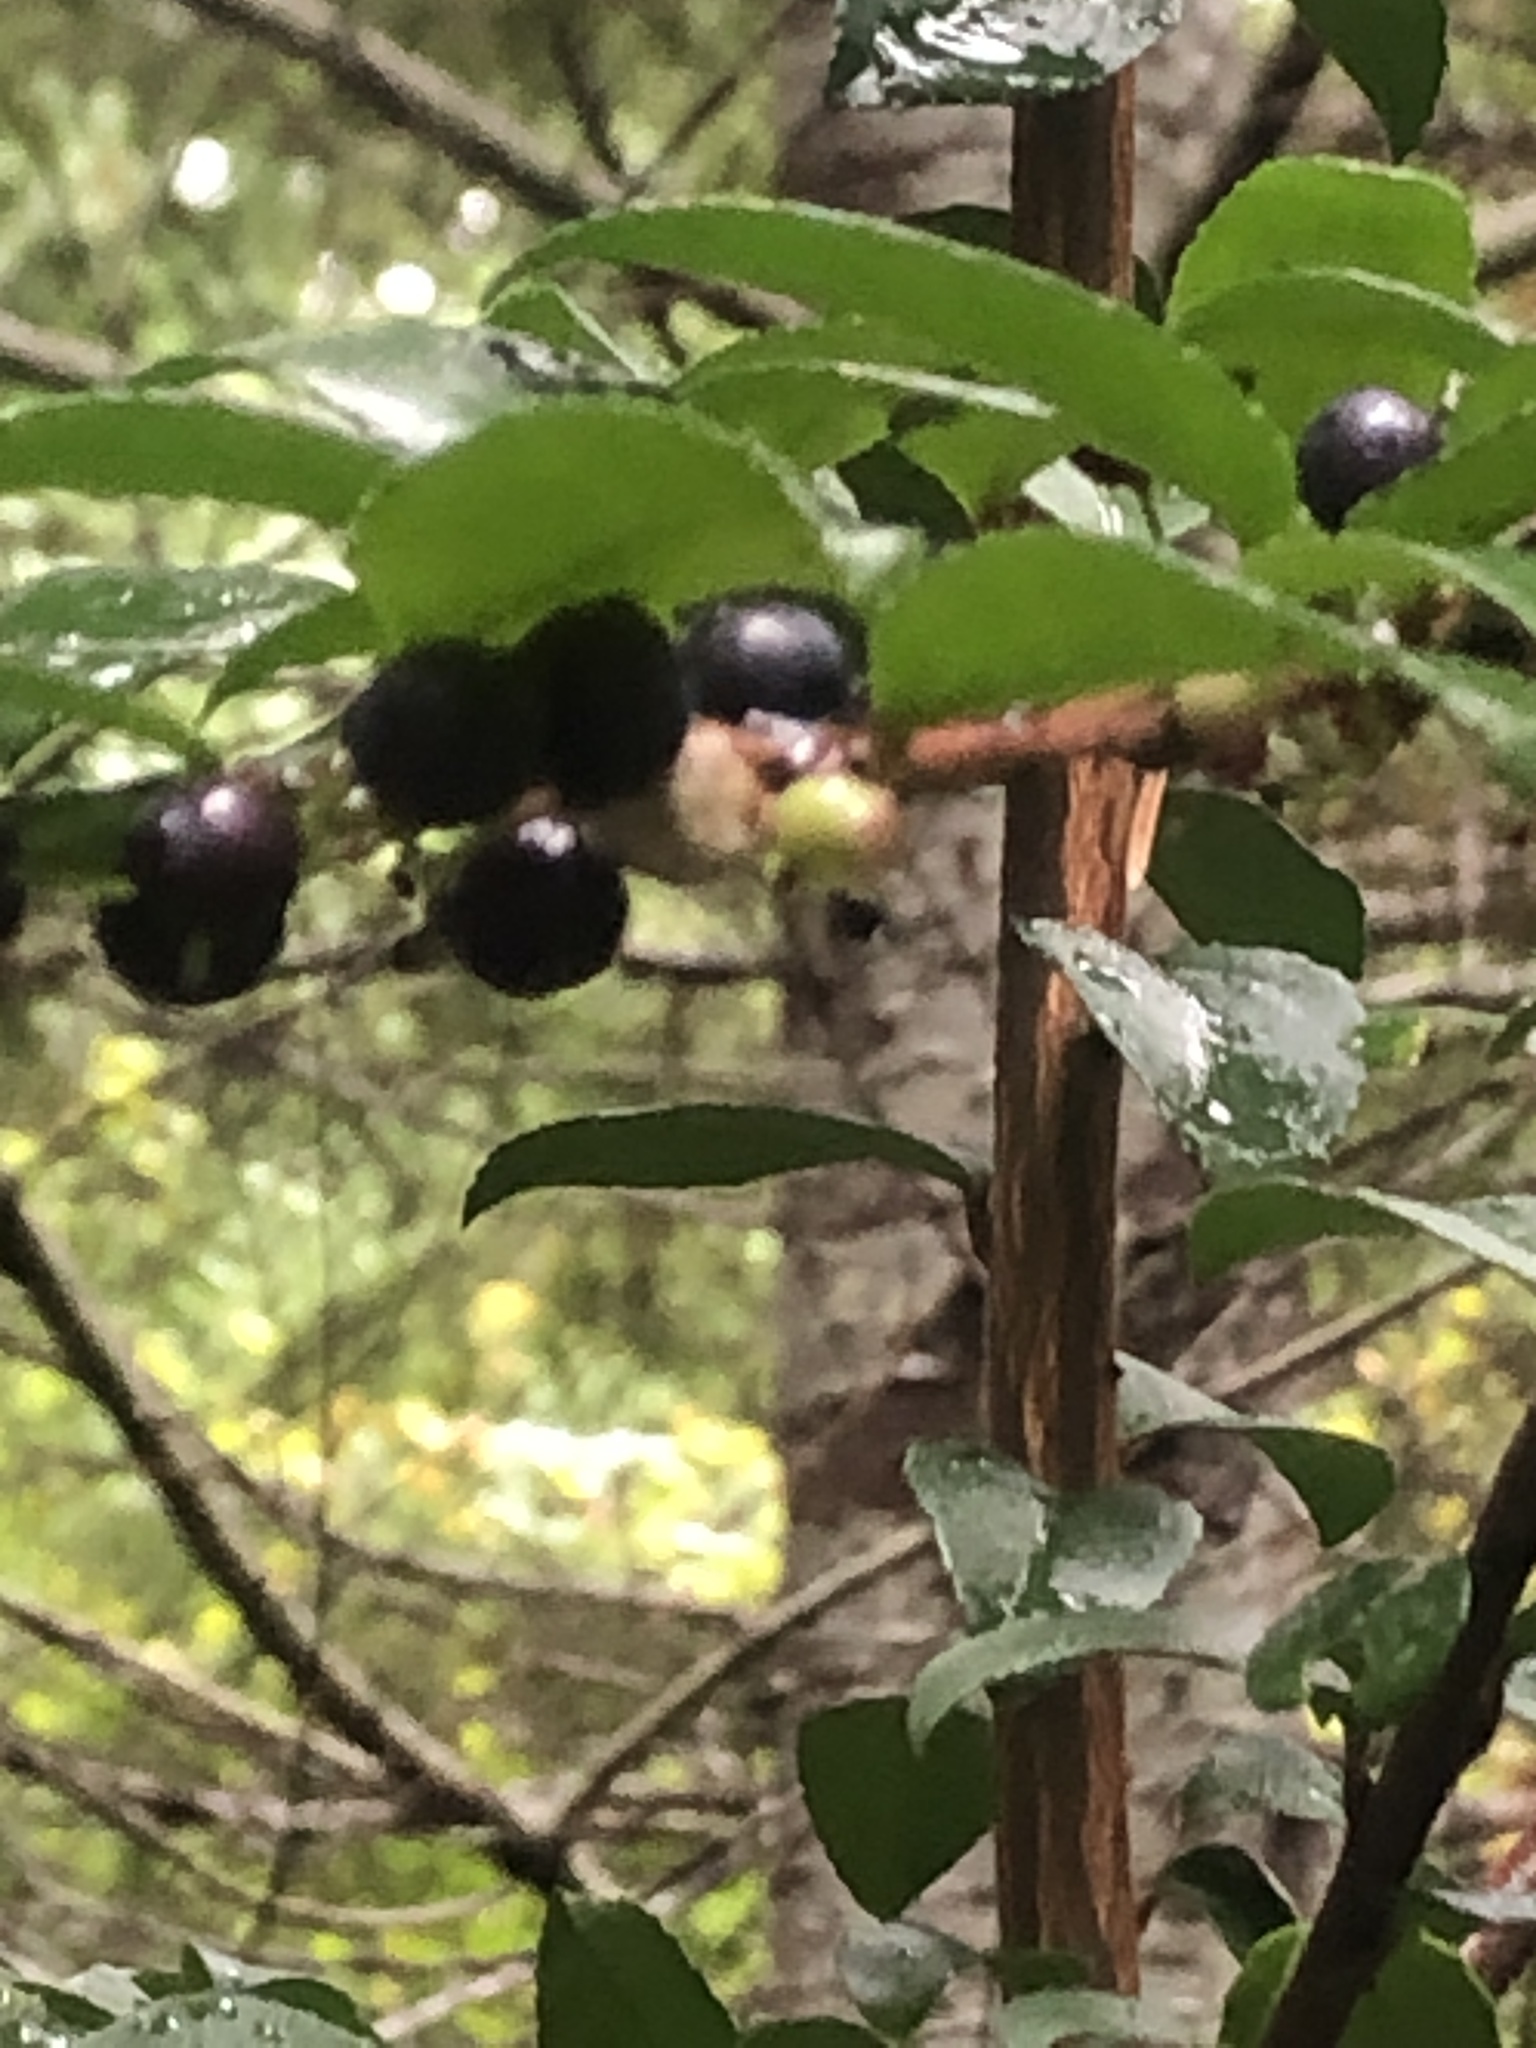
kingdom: Plantae
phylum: Tracheophyta
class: Magnoliopsida
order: Ericales
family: Ericaceae
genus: Vaccinium
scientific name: Vaccinium ovatum
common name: California-huckleberry
